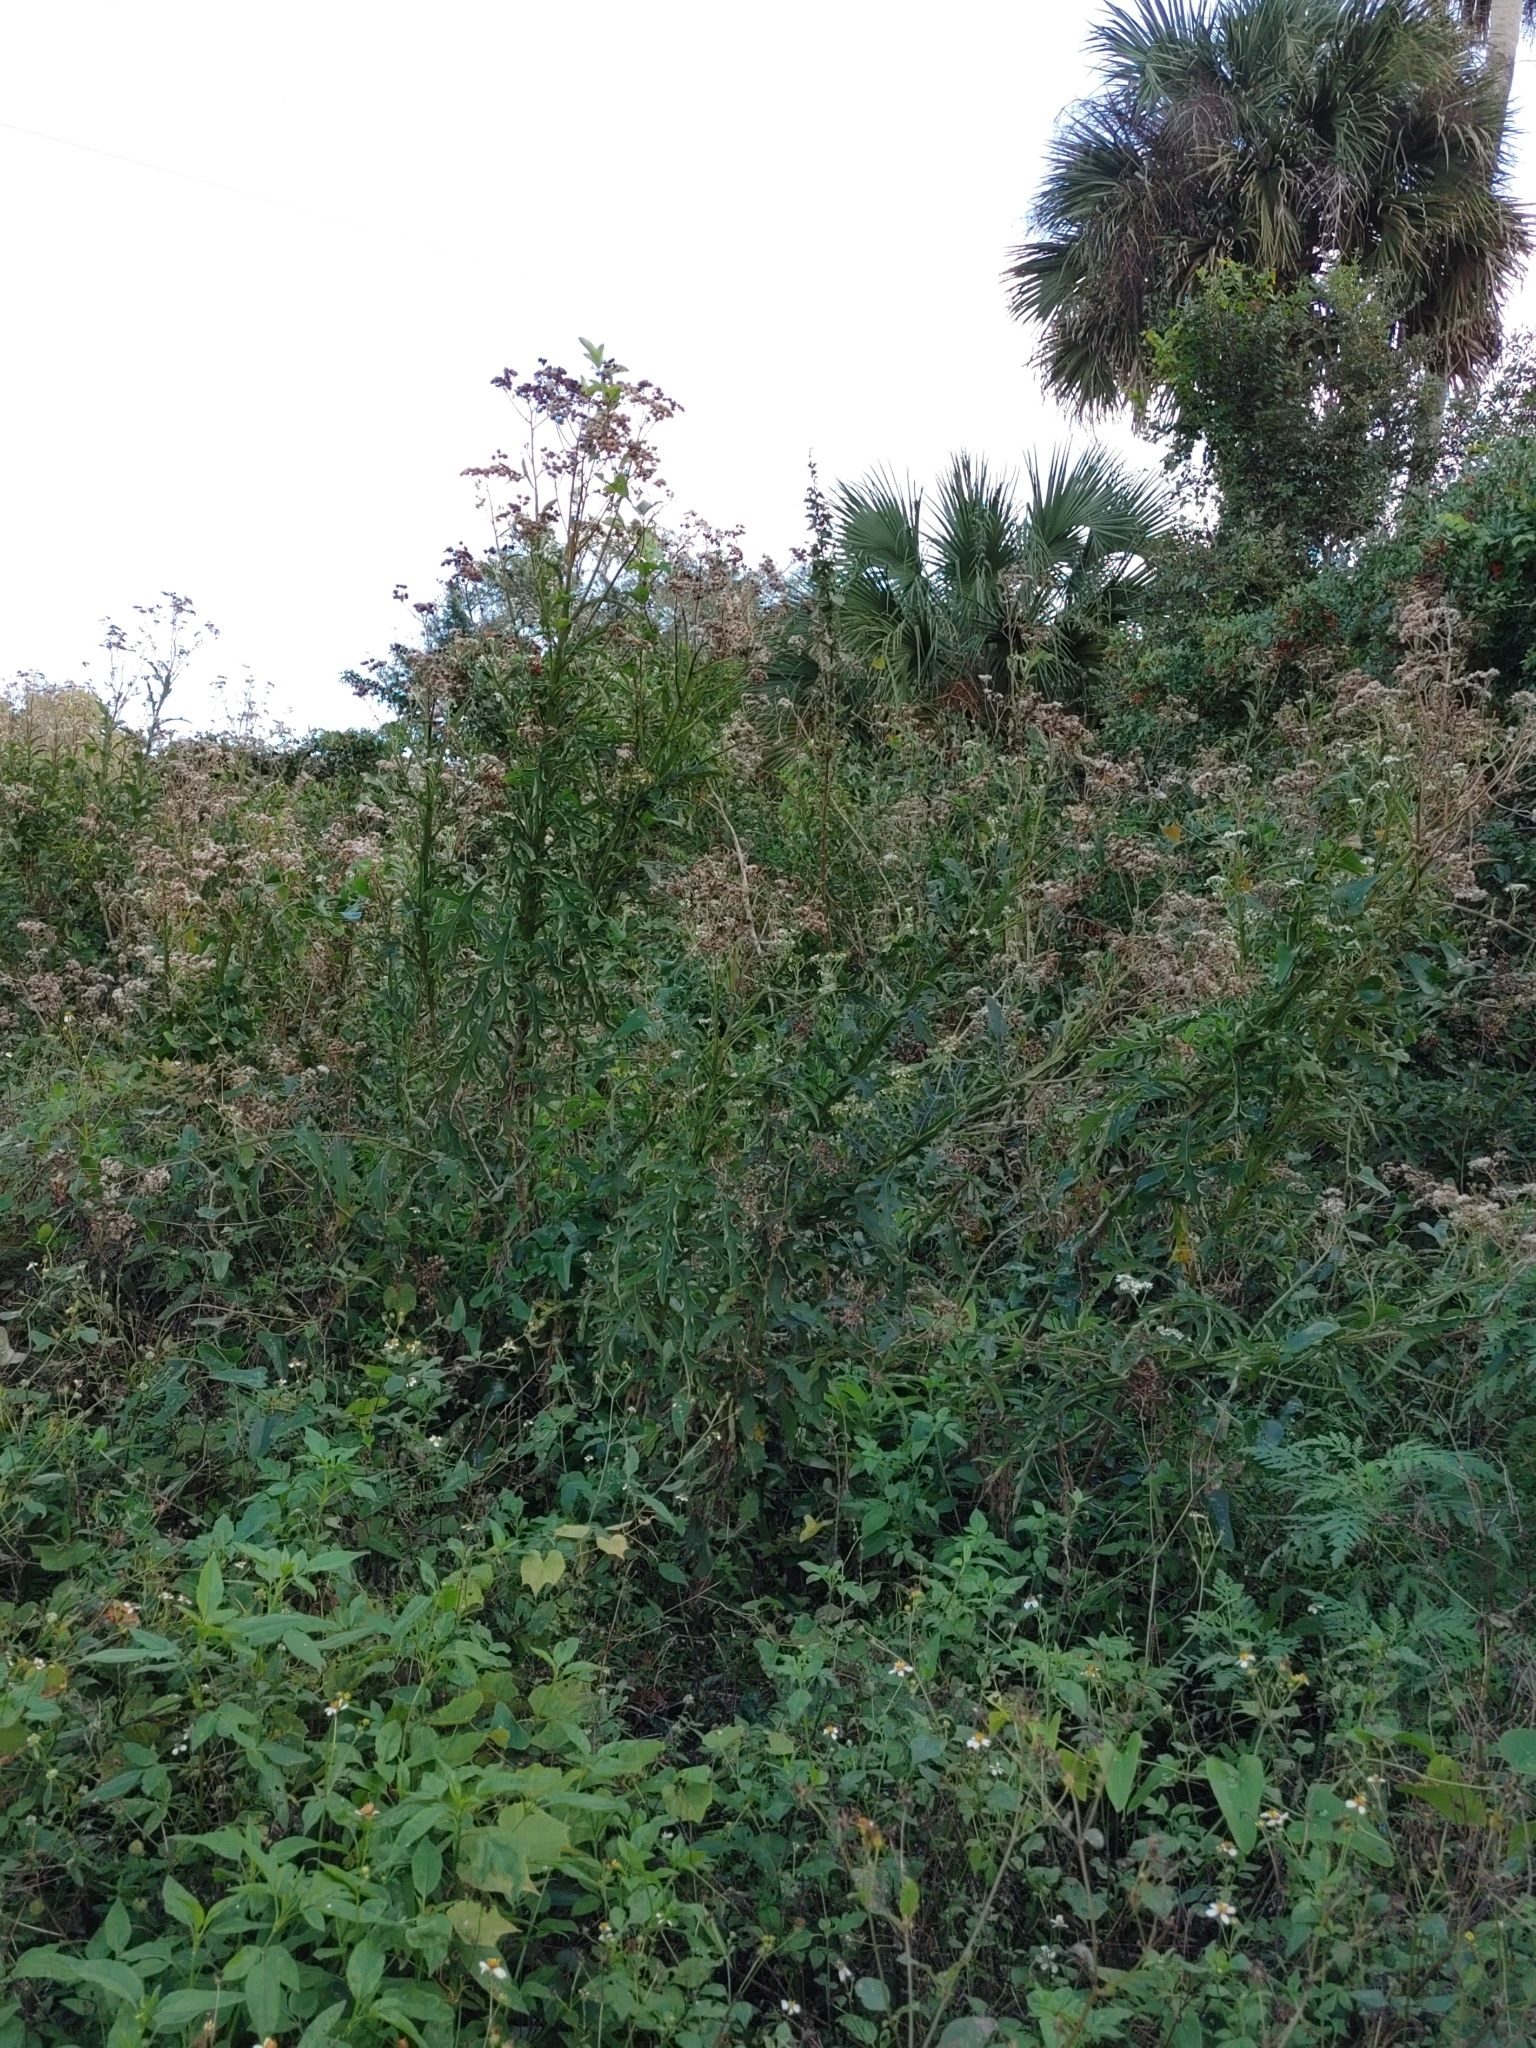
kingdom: Plantae
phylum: Tracheophyta
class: Magnoliopsida
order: Asterales
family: Asteraceae
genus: Verbesina
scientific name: Verbesina virginica
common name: Frostweed
